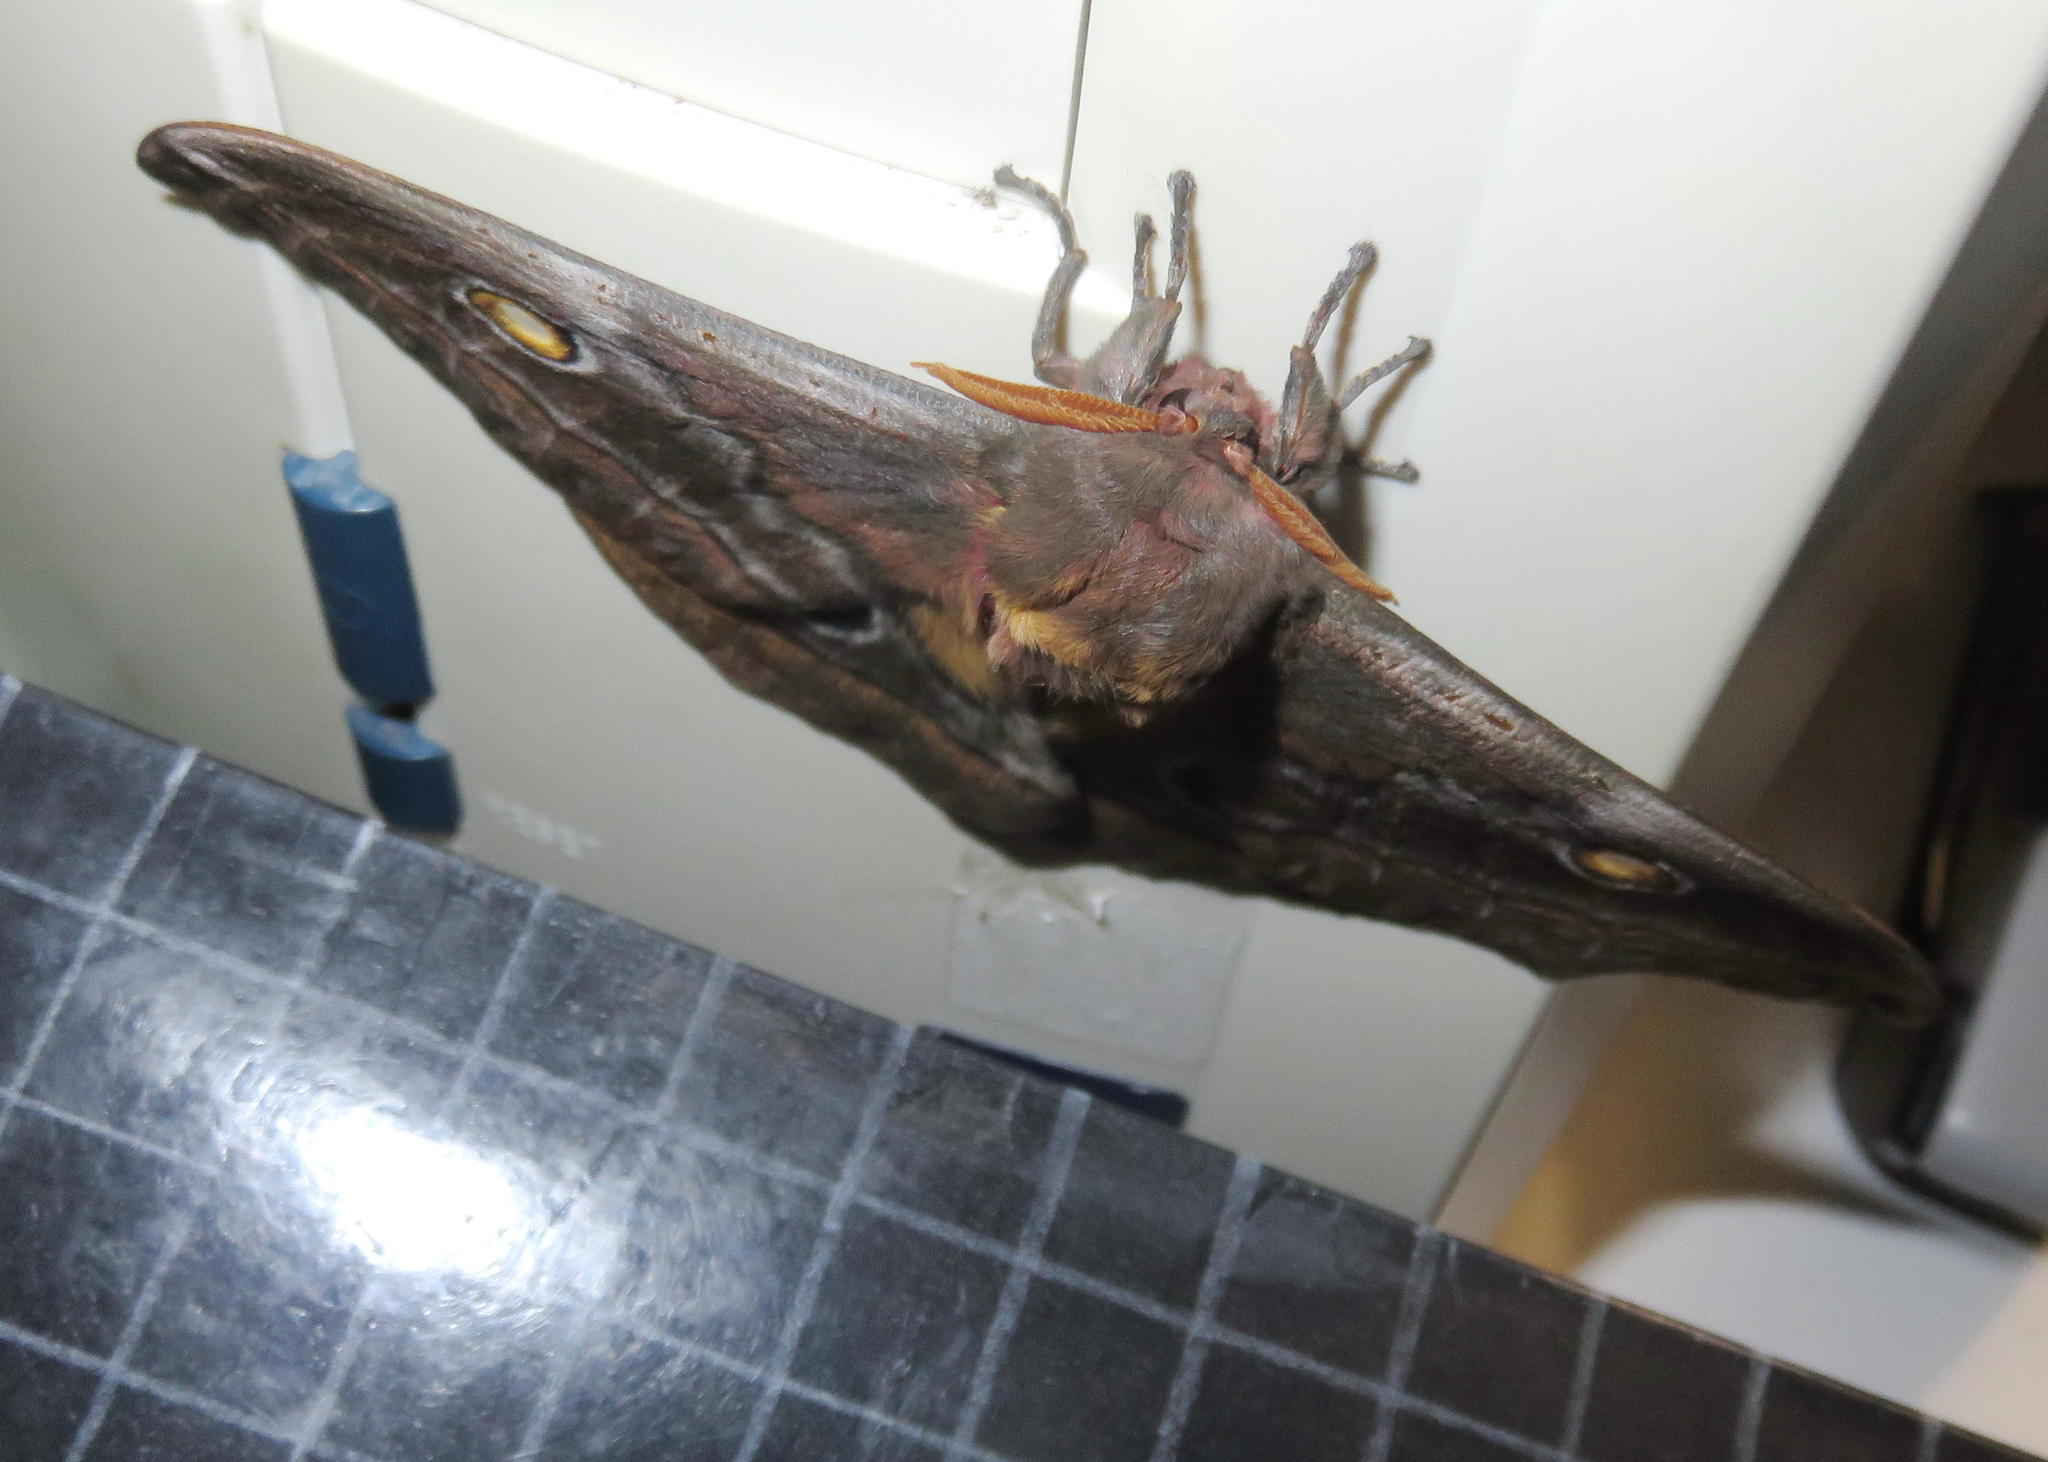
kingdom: Animalia
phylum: Arthropoda
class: Insecta
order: Lepidoptera
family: Saturniidae
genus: Nudaurelia
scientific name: Nudaurelia cytherea
